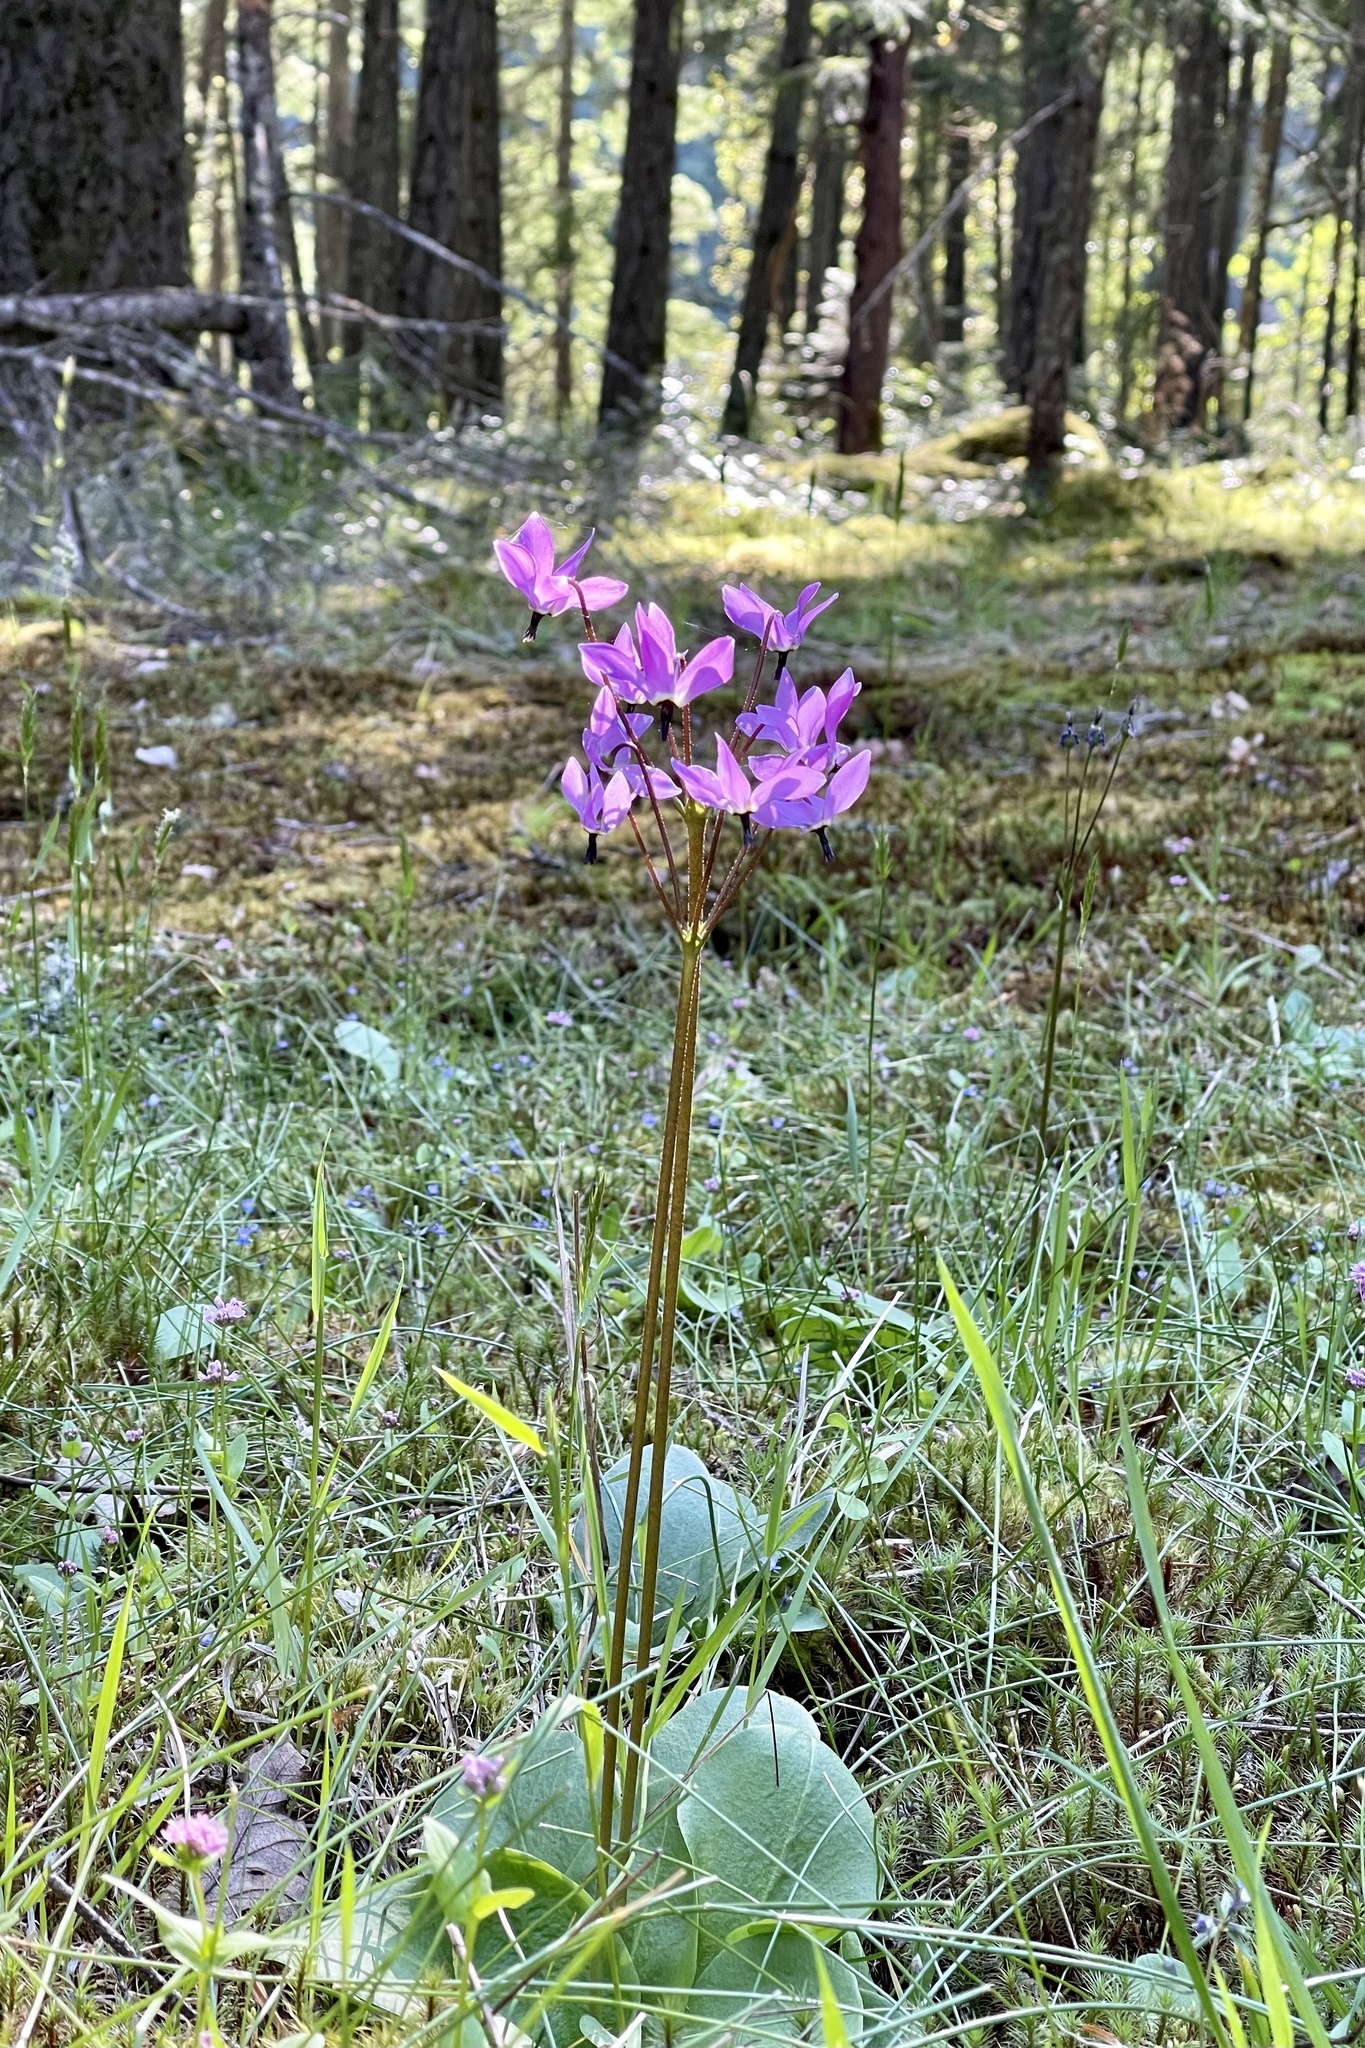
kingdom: Plantae
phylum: Tracheophyta
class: Magnoliopsida
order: Ericales
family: Primulaceae
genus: Dodecatheon
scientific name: Dodecatheon hendersonii
